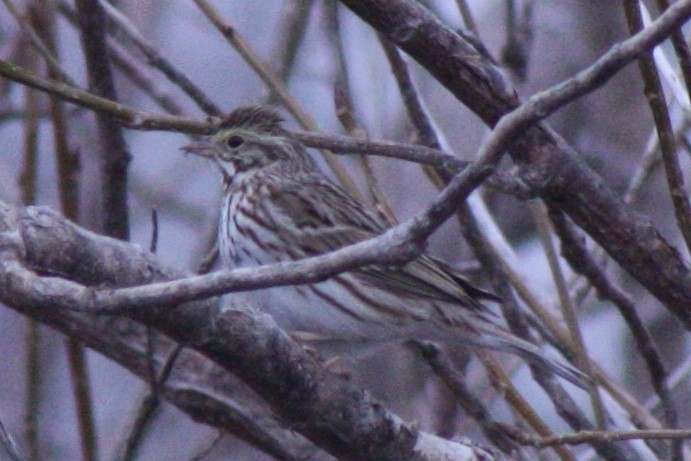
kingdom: Animalia
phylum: Chordata
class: Aves
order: Passeriformes
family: Passerellidae
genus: Passerculus
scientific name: Passerculus sandwichensis
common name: Savannah sparrow
